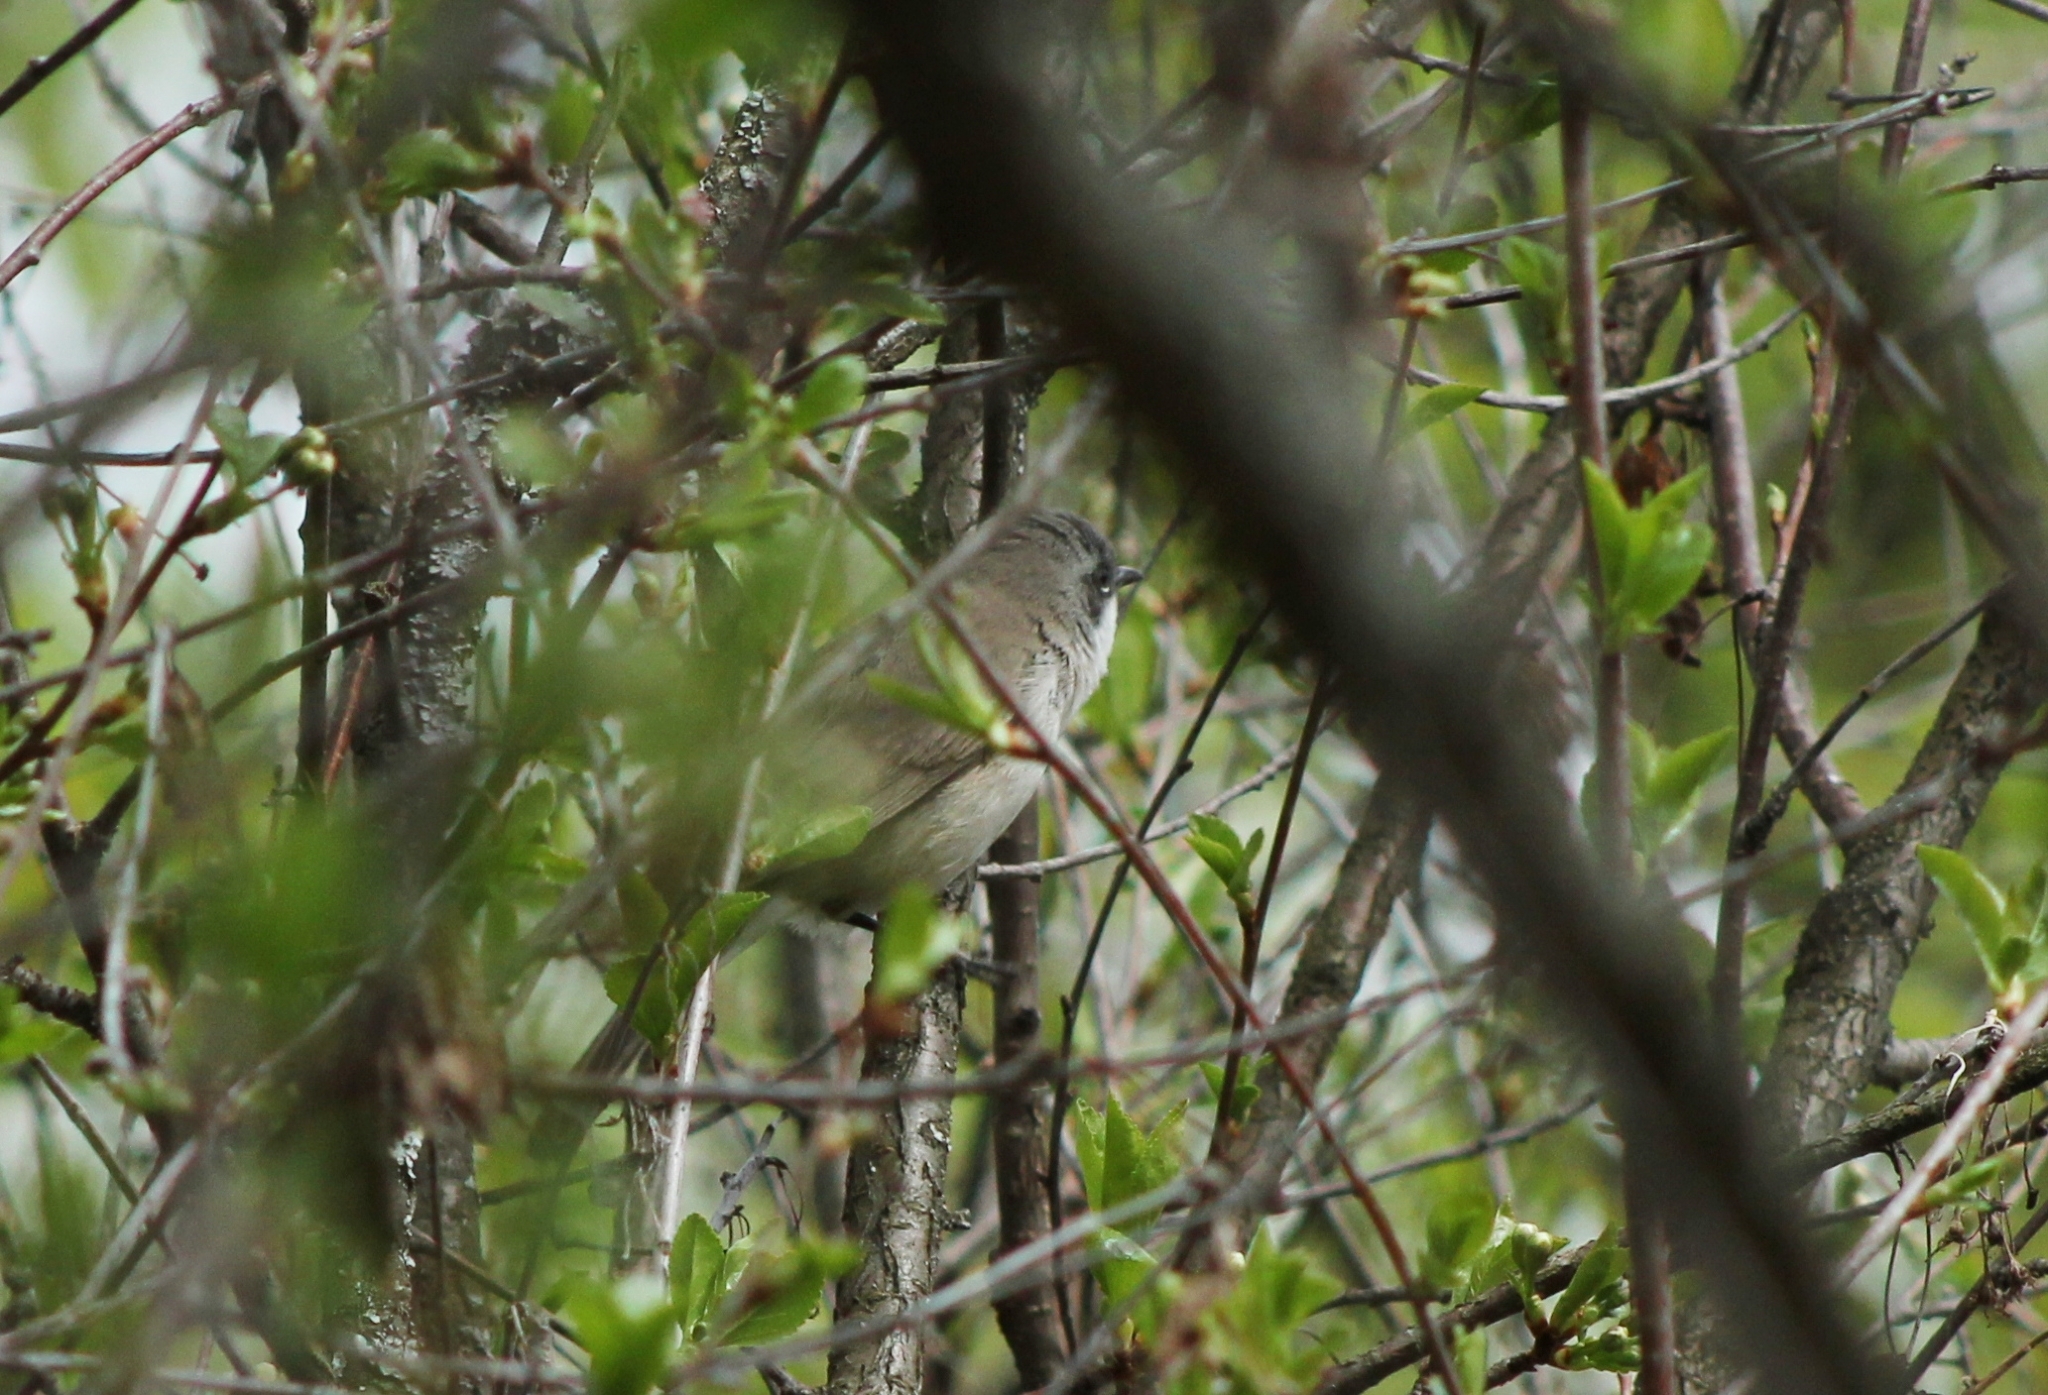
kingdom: Animalia
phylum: Chordata
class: Aves
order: Passeriformes
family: Sylviidae
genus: Sylvia
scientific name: Sylvia curruca
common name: Lesser whitethroat
